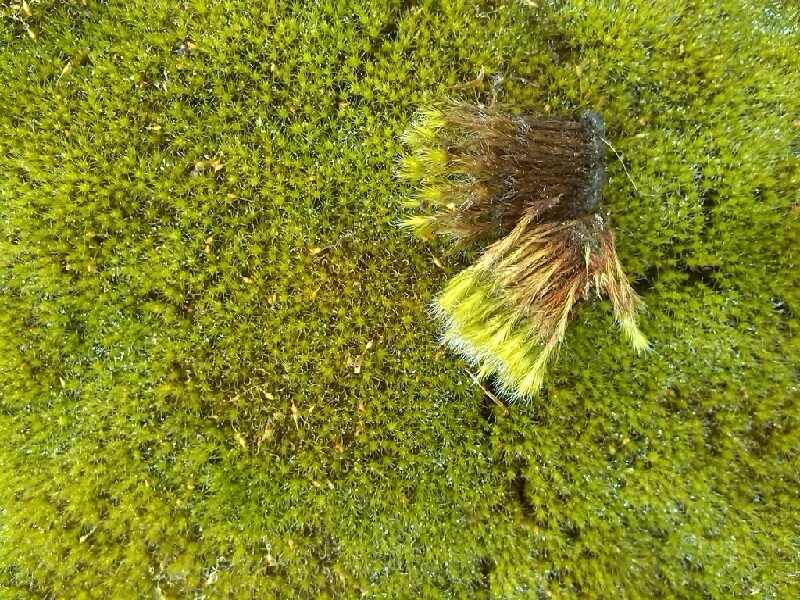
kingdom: Plantae
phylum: Bryophyta
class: Bryopsida
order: Dicranales
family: Leucobryaceae
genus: Campylopus
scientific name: Campylopus introflexus
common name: Heath star moss
